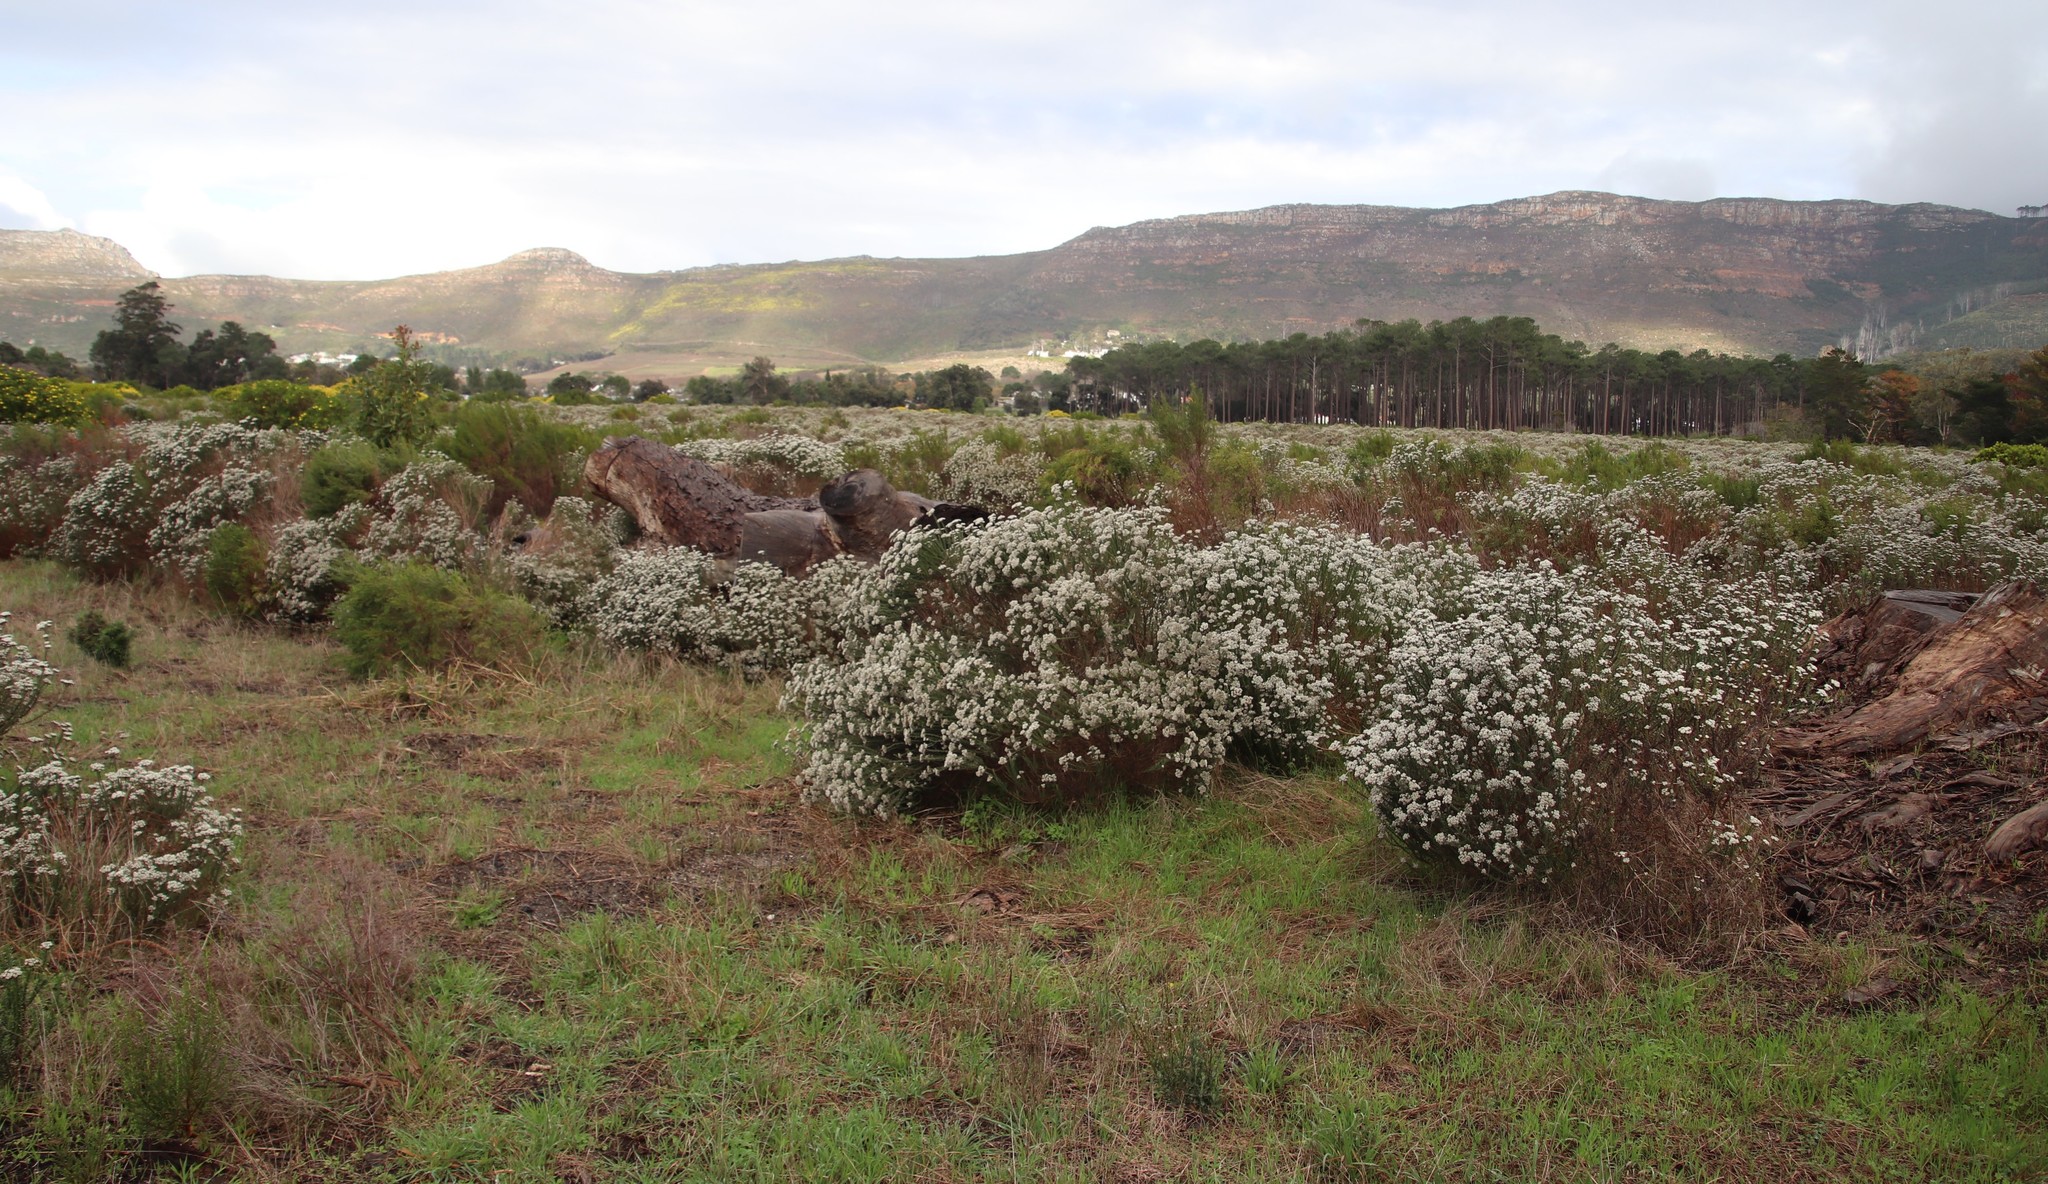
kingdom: Plantae
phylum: Tracheophyta
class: Magnoliopsida
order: Asterales
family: Asteraceae
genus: Metalasia
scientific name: Metalasia densa
